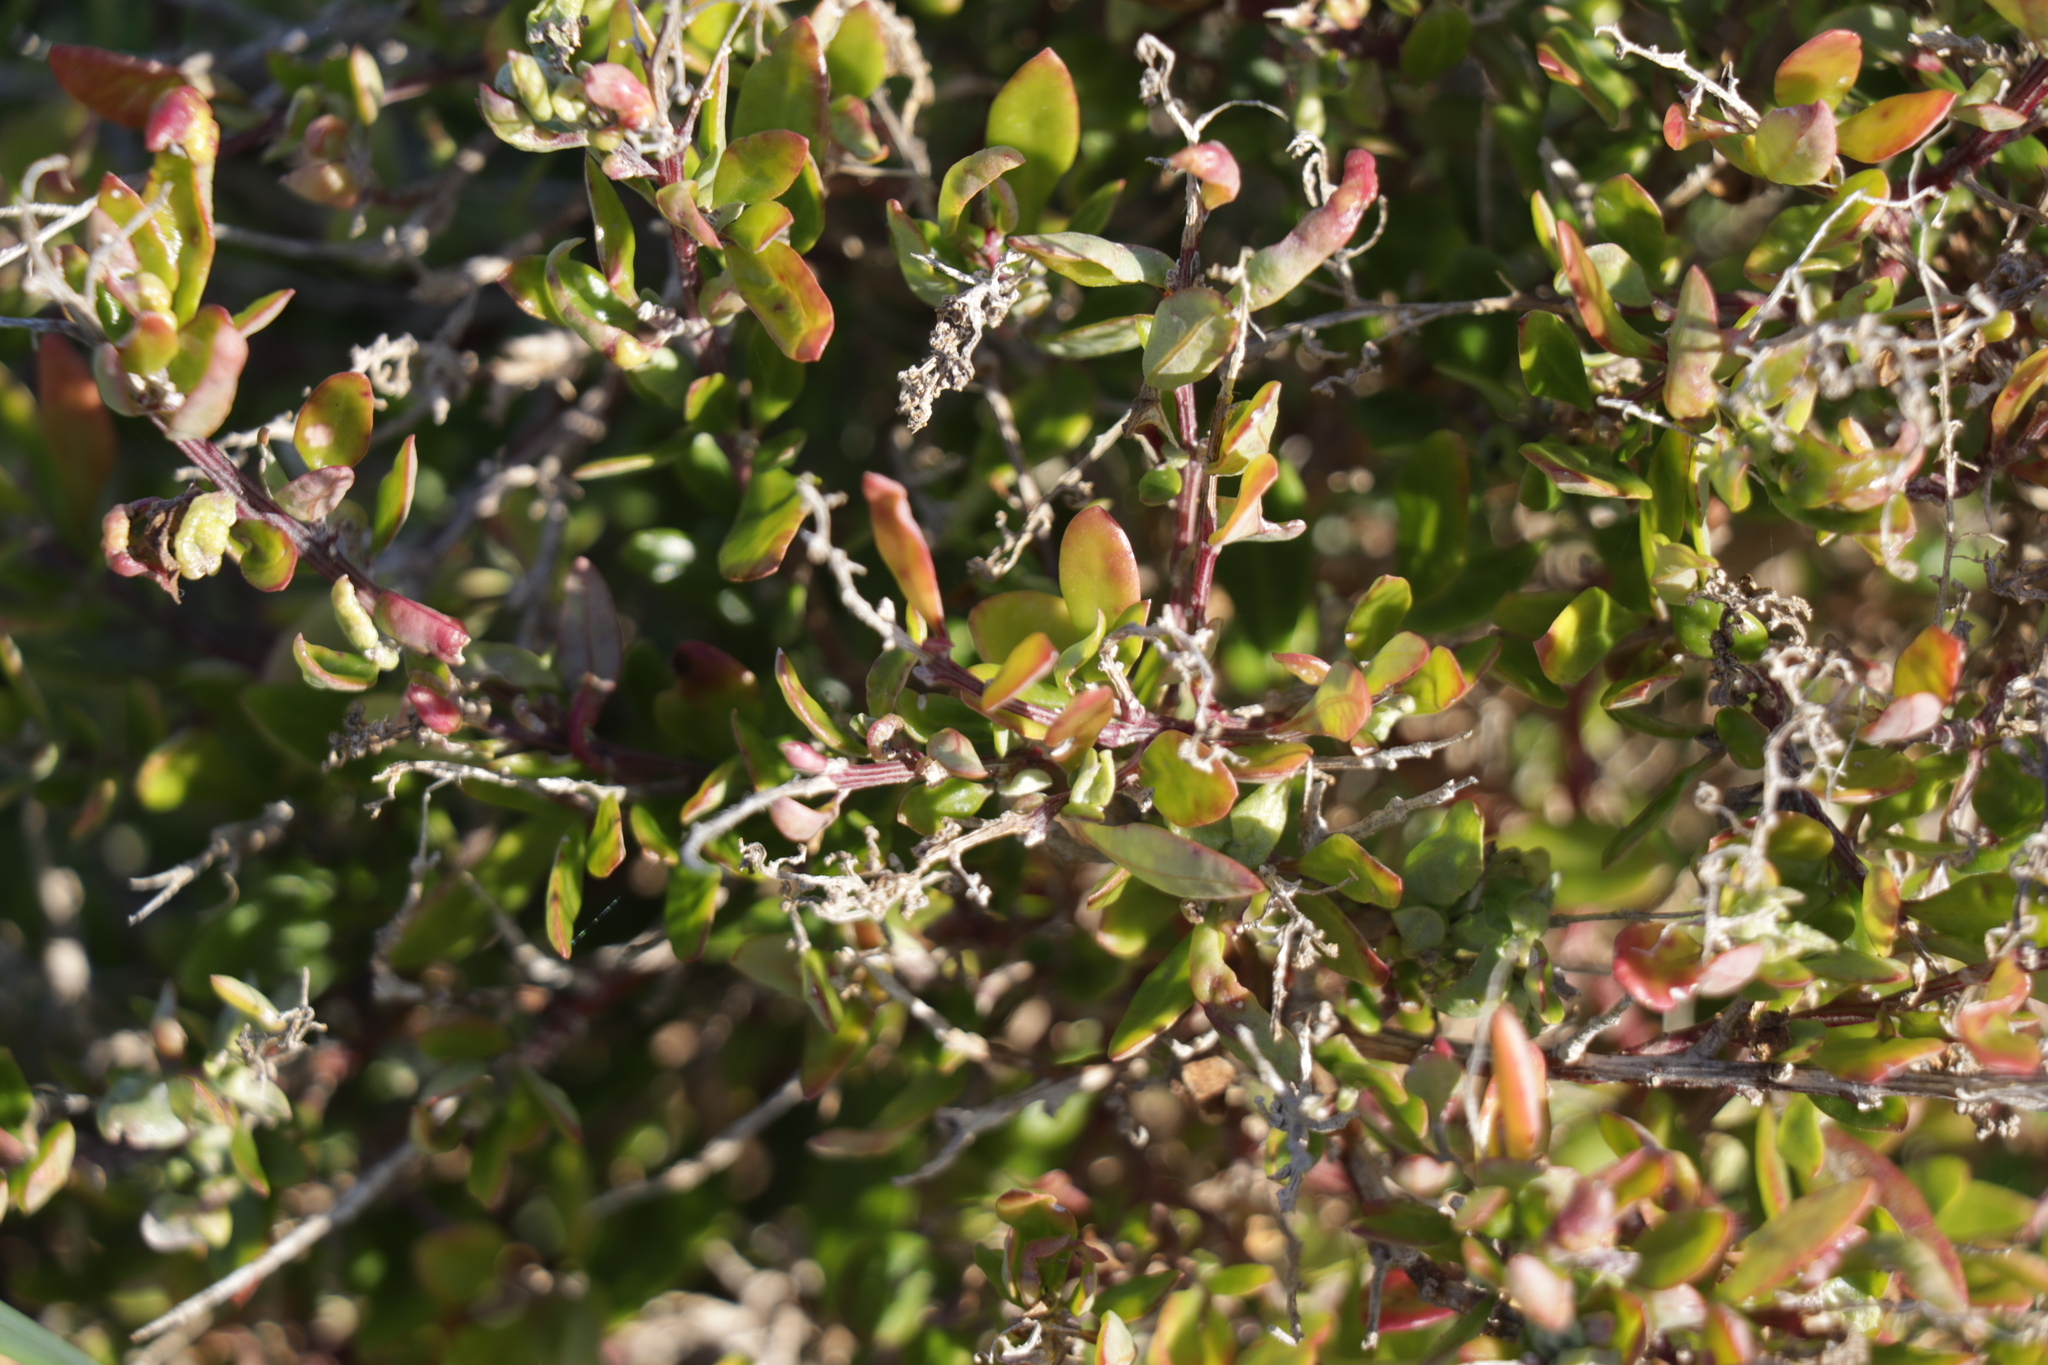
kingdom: Plantae
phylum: Tracheophyta
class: Magnoliopsida
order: Caryophyllales
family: Amaranthaceae
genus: Chenopodium
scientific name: Chenopodium candolleanum
